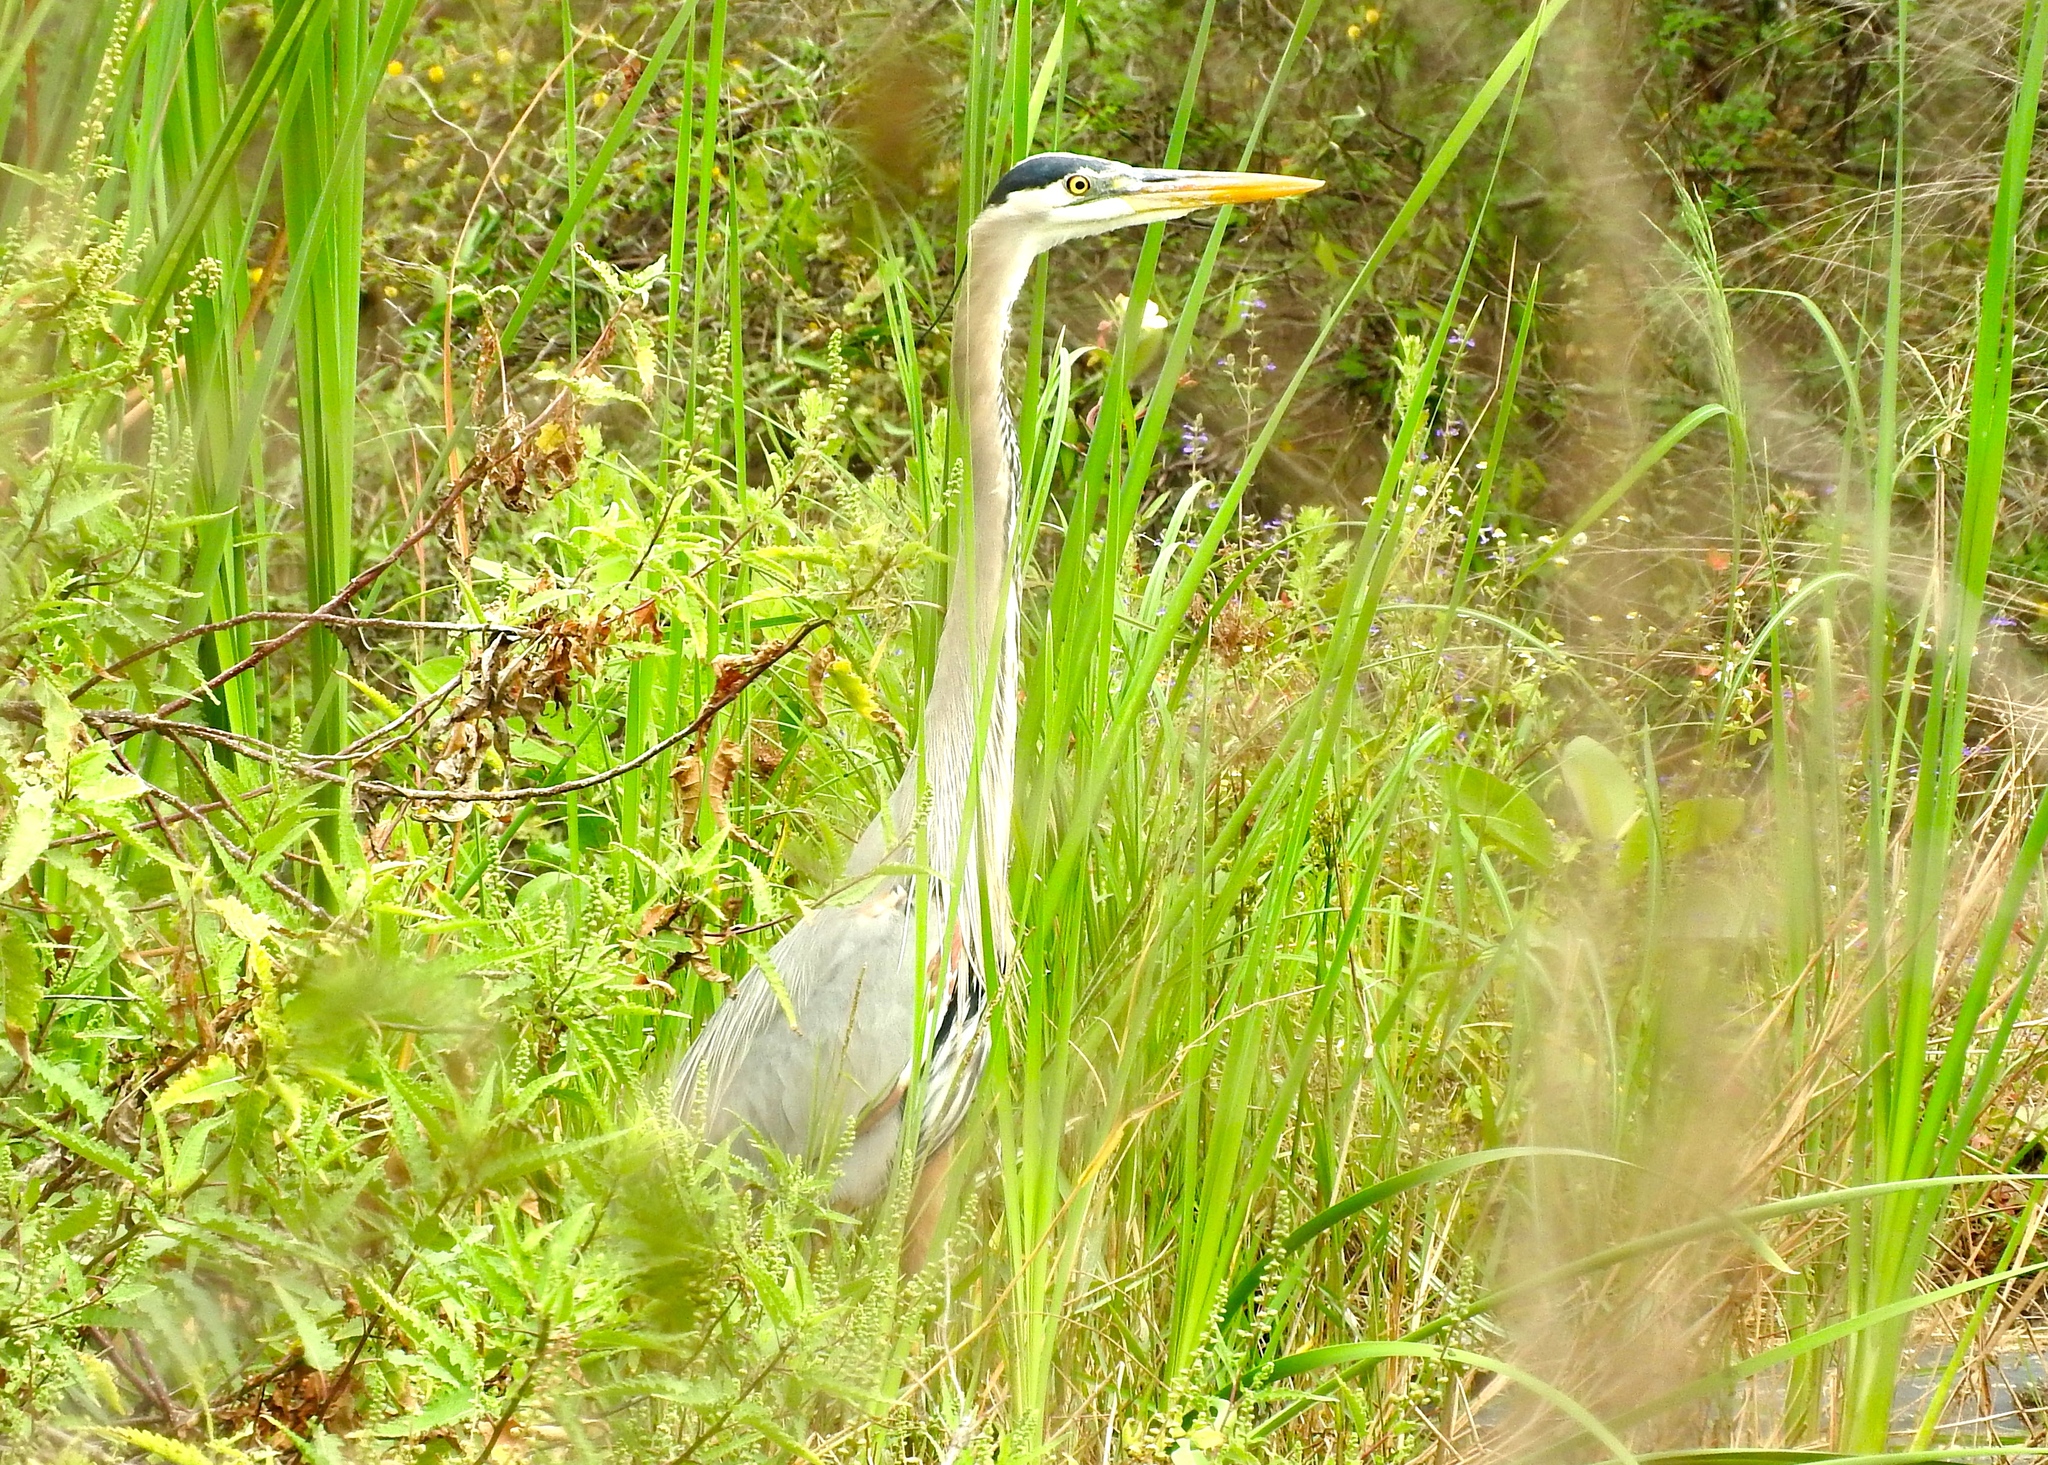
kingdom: Animalia
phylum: Chordata
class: Aves
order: Pelecaniformes
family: Ardeidae
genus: Ardea
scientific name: Ardea herodias
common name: Great blue heron
